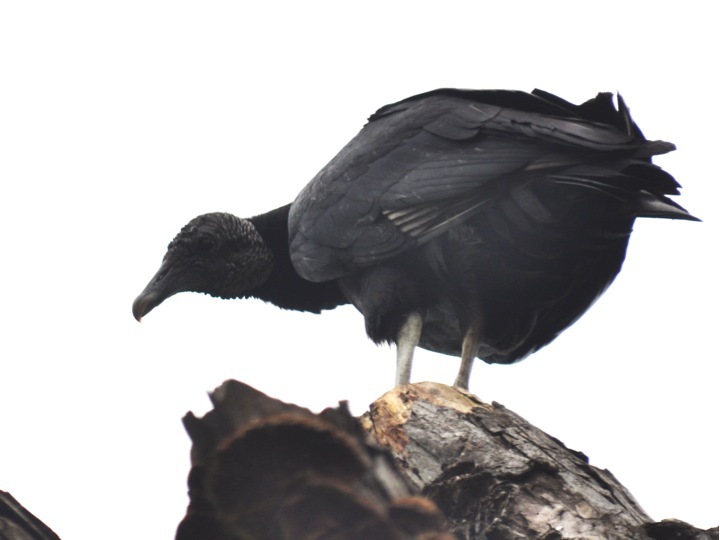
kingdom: Animalia
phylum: Chordata
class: Aves
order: Accipitriformes
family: Cathartidae
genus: Coragyps
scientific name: Coragyps atratus
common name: Black vulture
